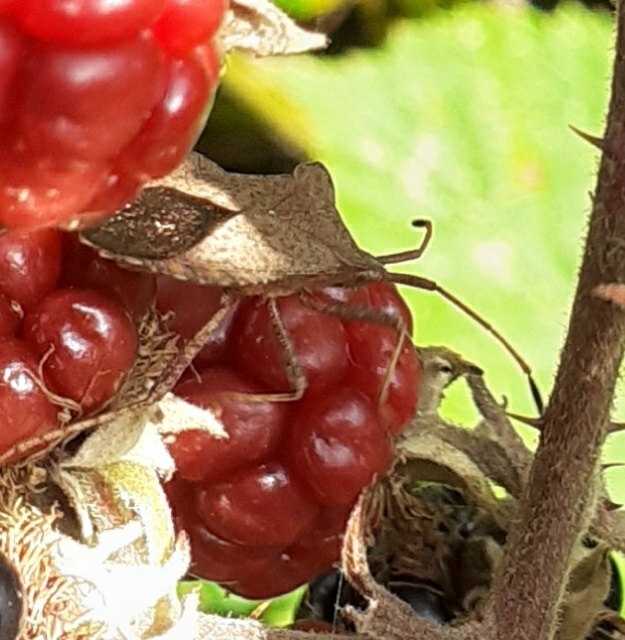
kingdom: Animalia
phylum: Arthropoda
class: Insecta
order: Hemiptera
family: Coreidae
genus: Coreus
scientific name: Coreus marginatus
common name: Dock bug
